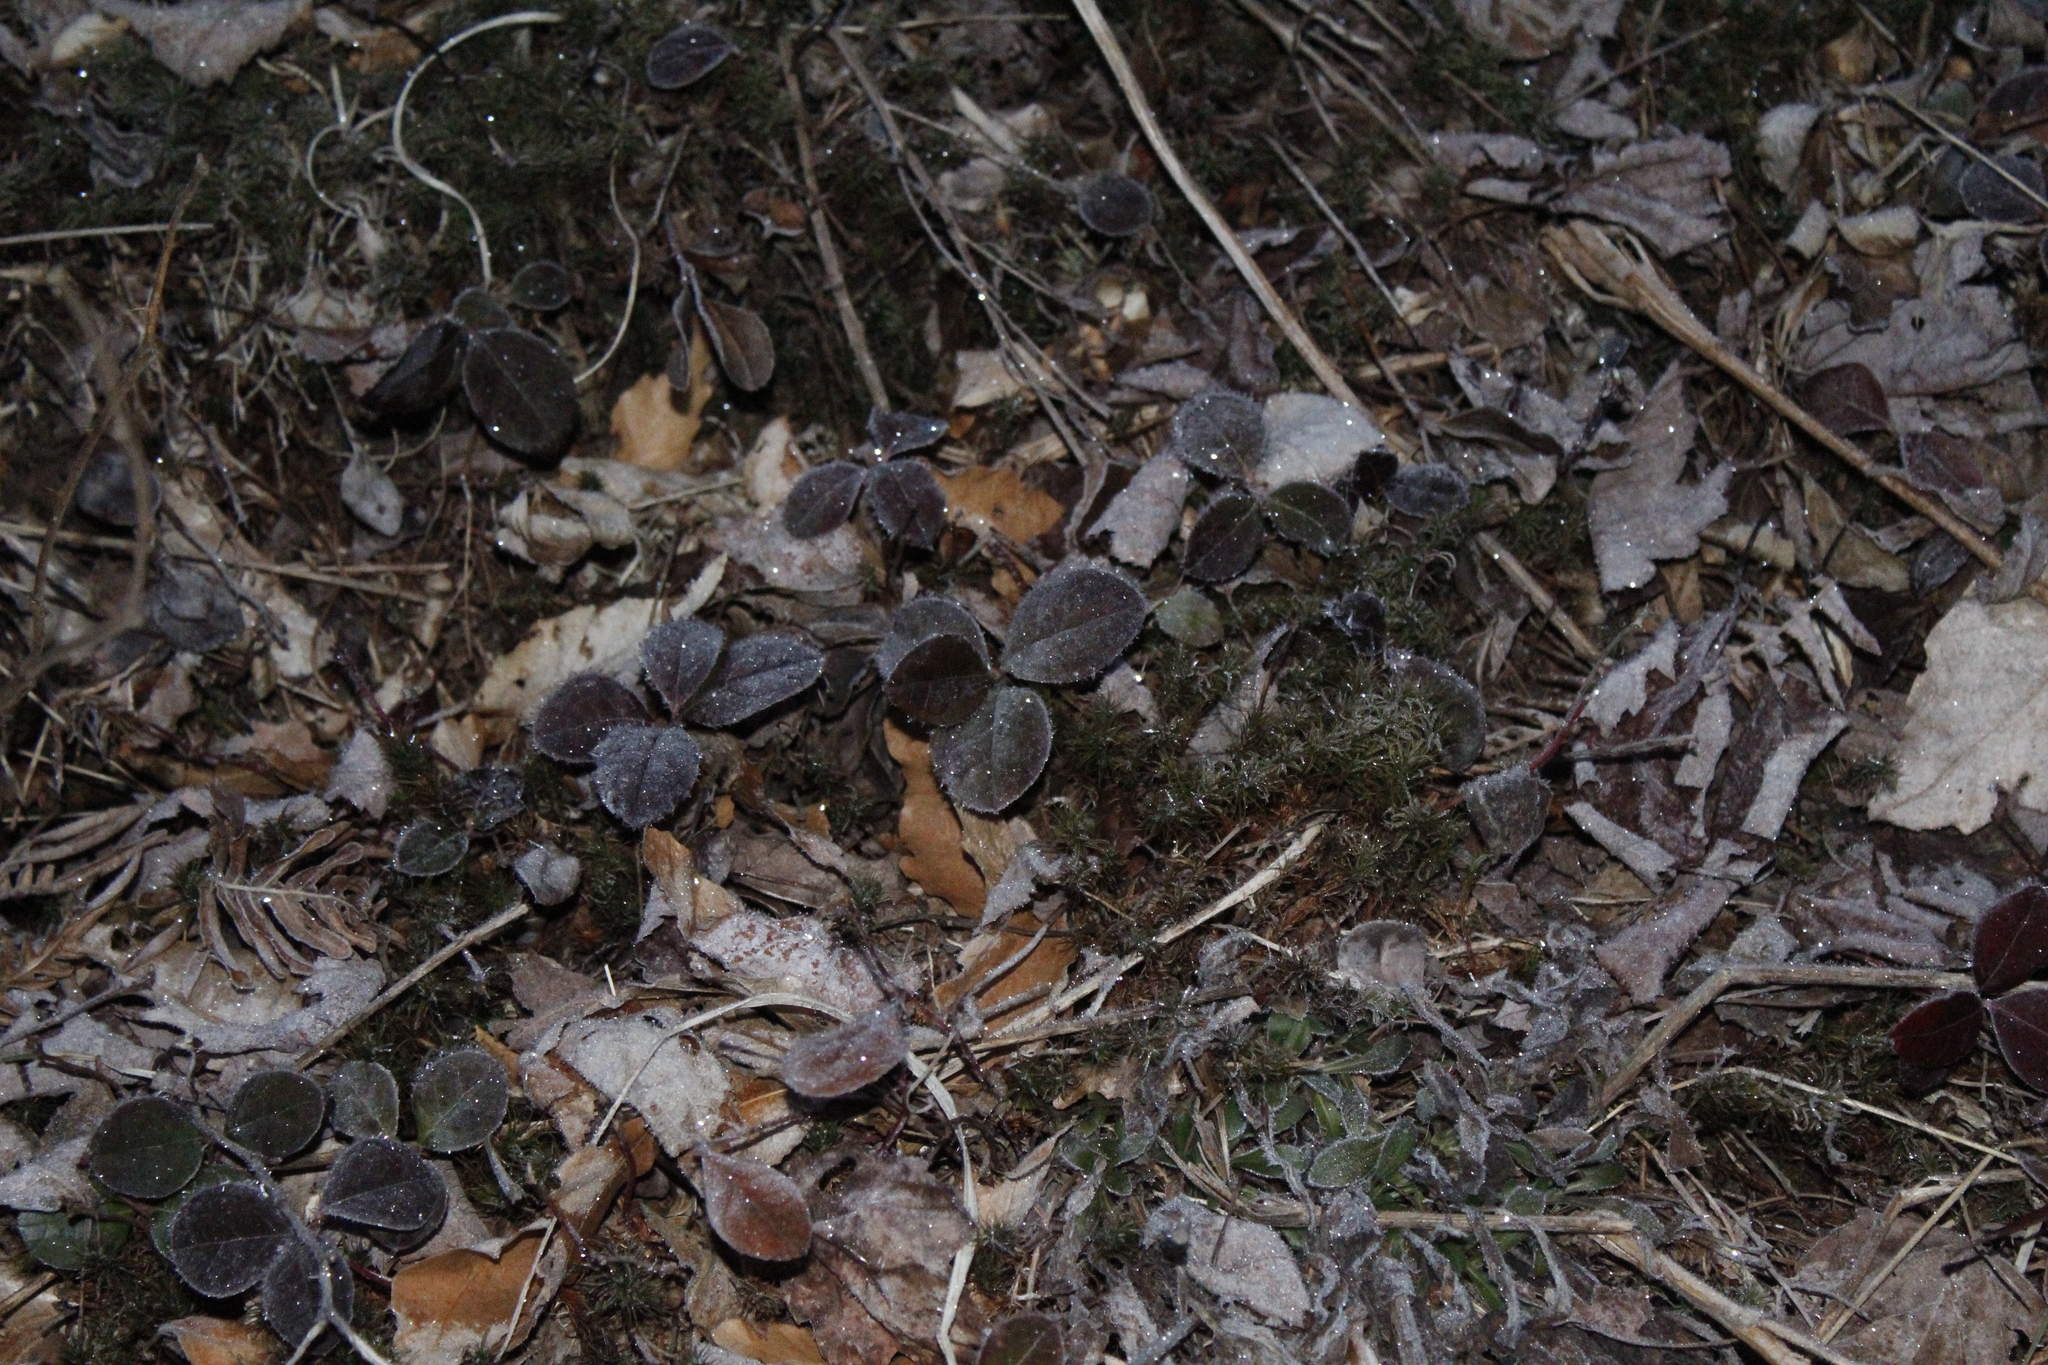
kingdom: Plantae
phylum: Tracheophyta
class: Magnoliopsida
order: Ericales
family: Ericaceae
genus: Gaultheria
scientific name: Gaultheria procumbens
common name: Checkerberry
